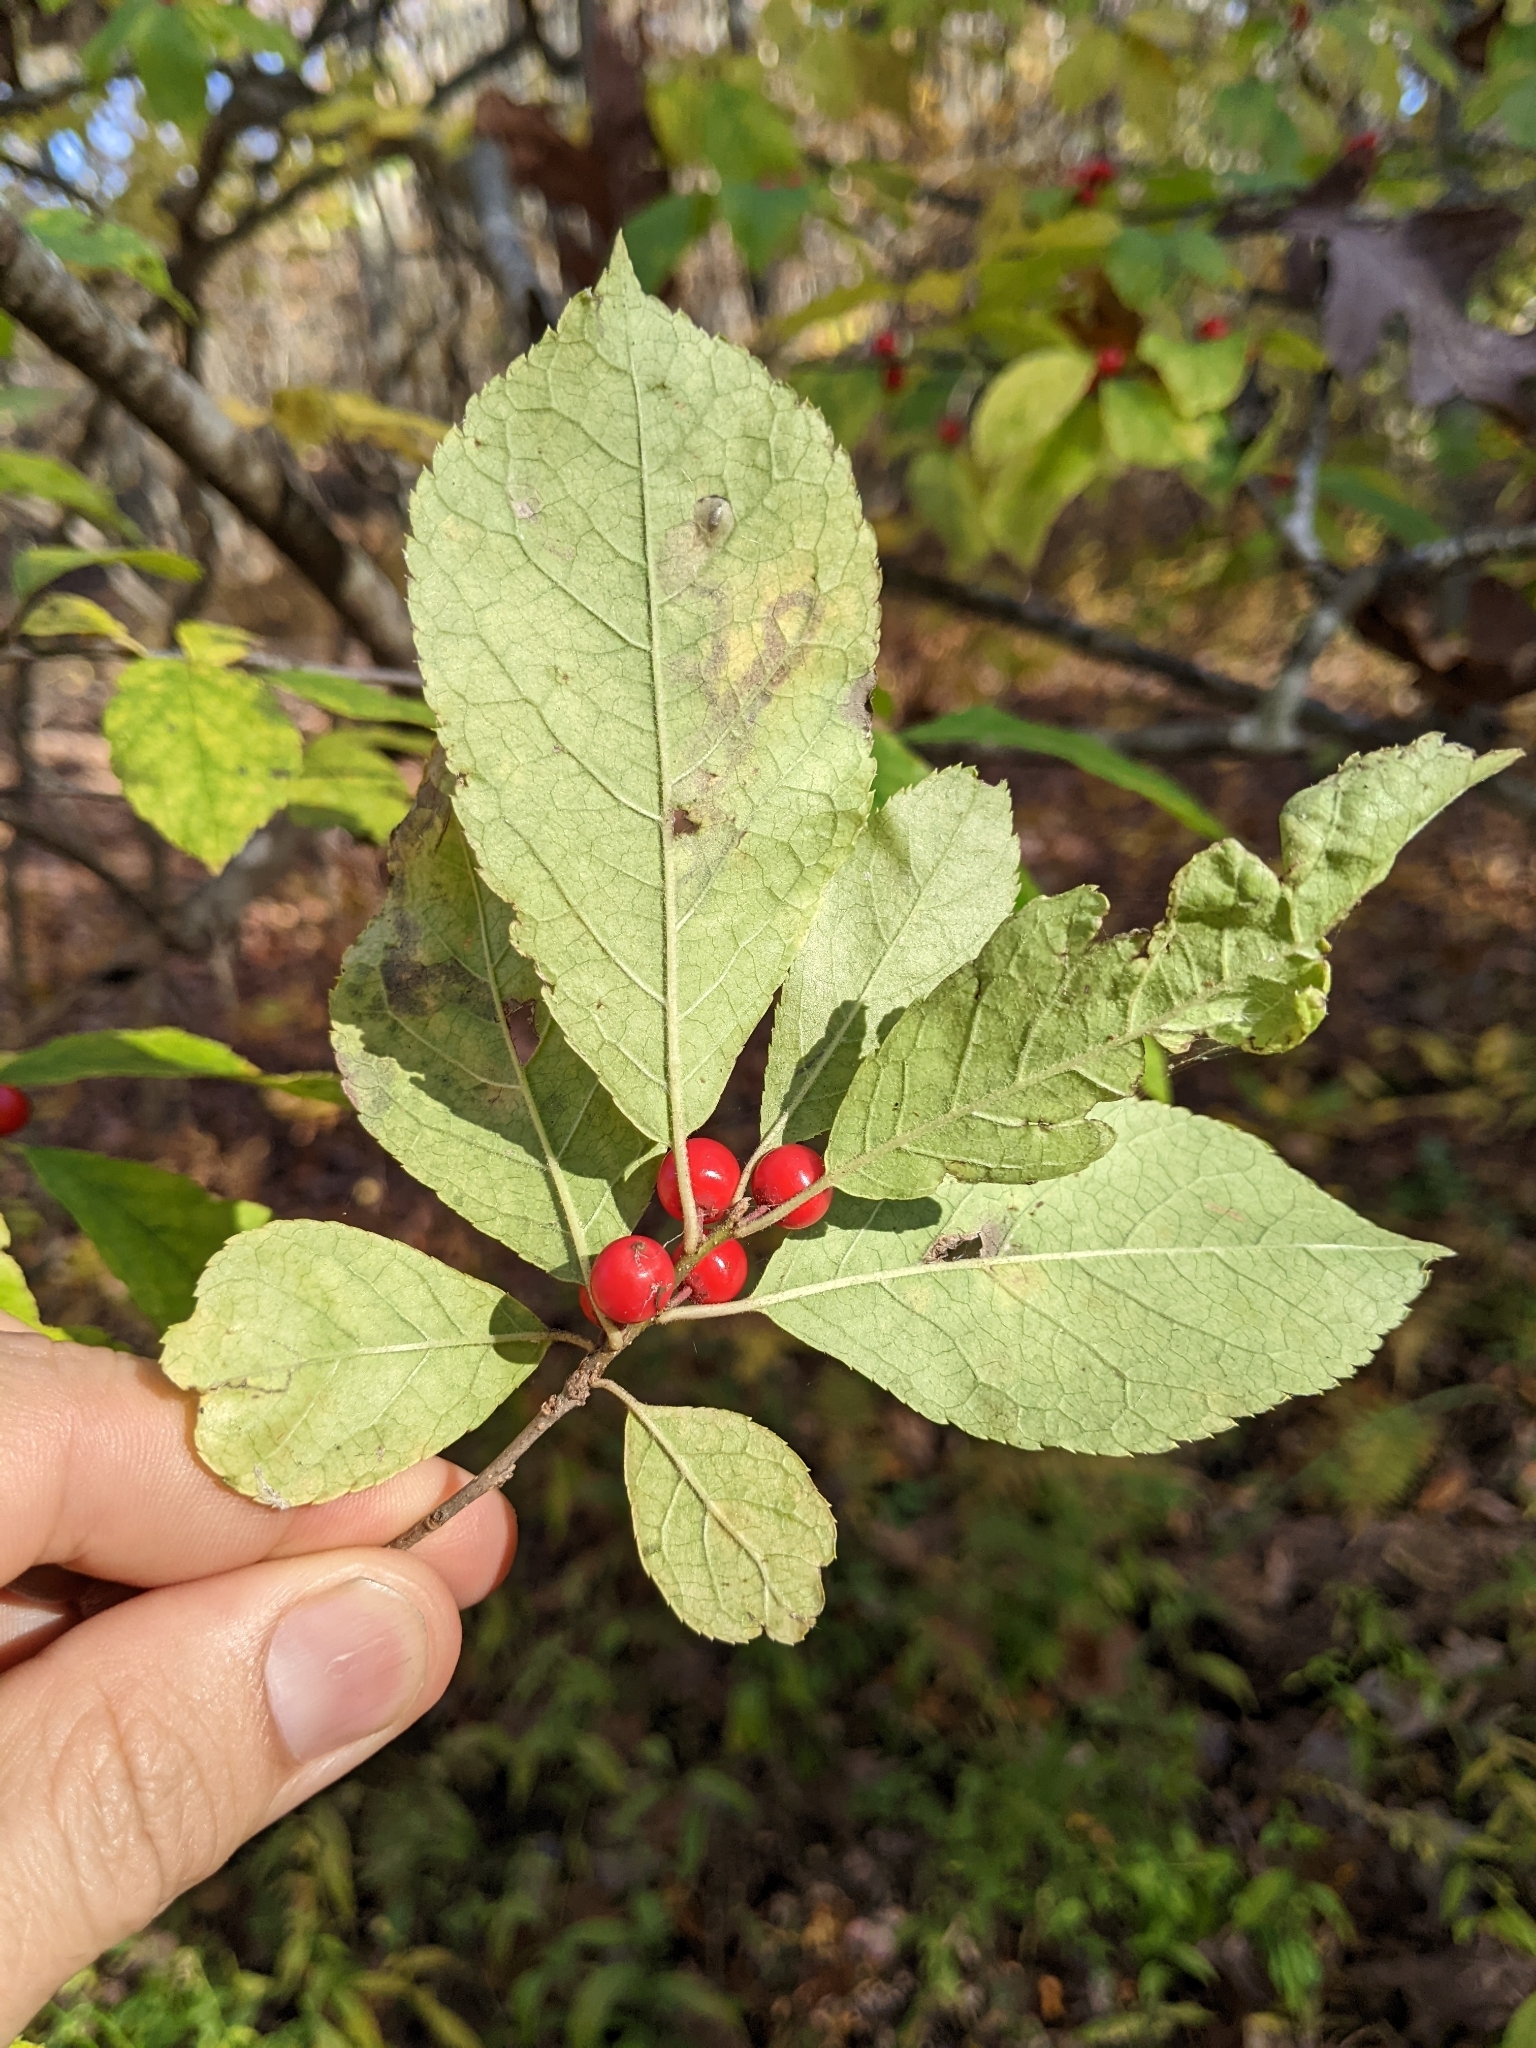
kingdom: Plantae
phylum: Tracheophyta
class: Magnoliopsida
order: Aquifoliales
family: Aquifoliaceae
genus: Ilex
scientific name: Ilex verticillata
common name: Virginia winterberry
